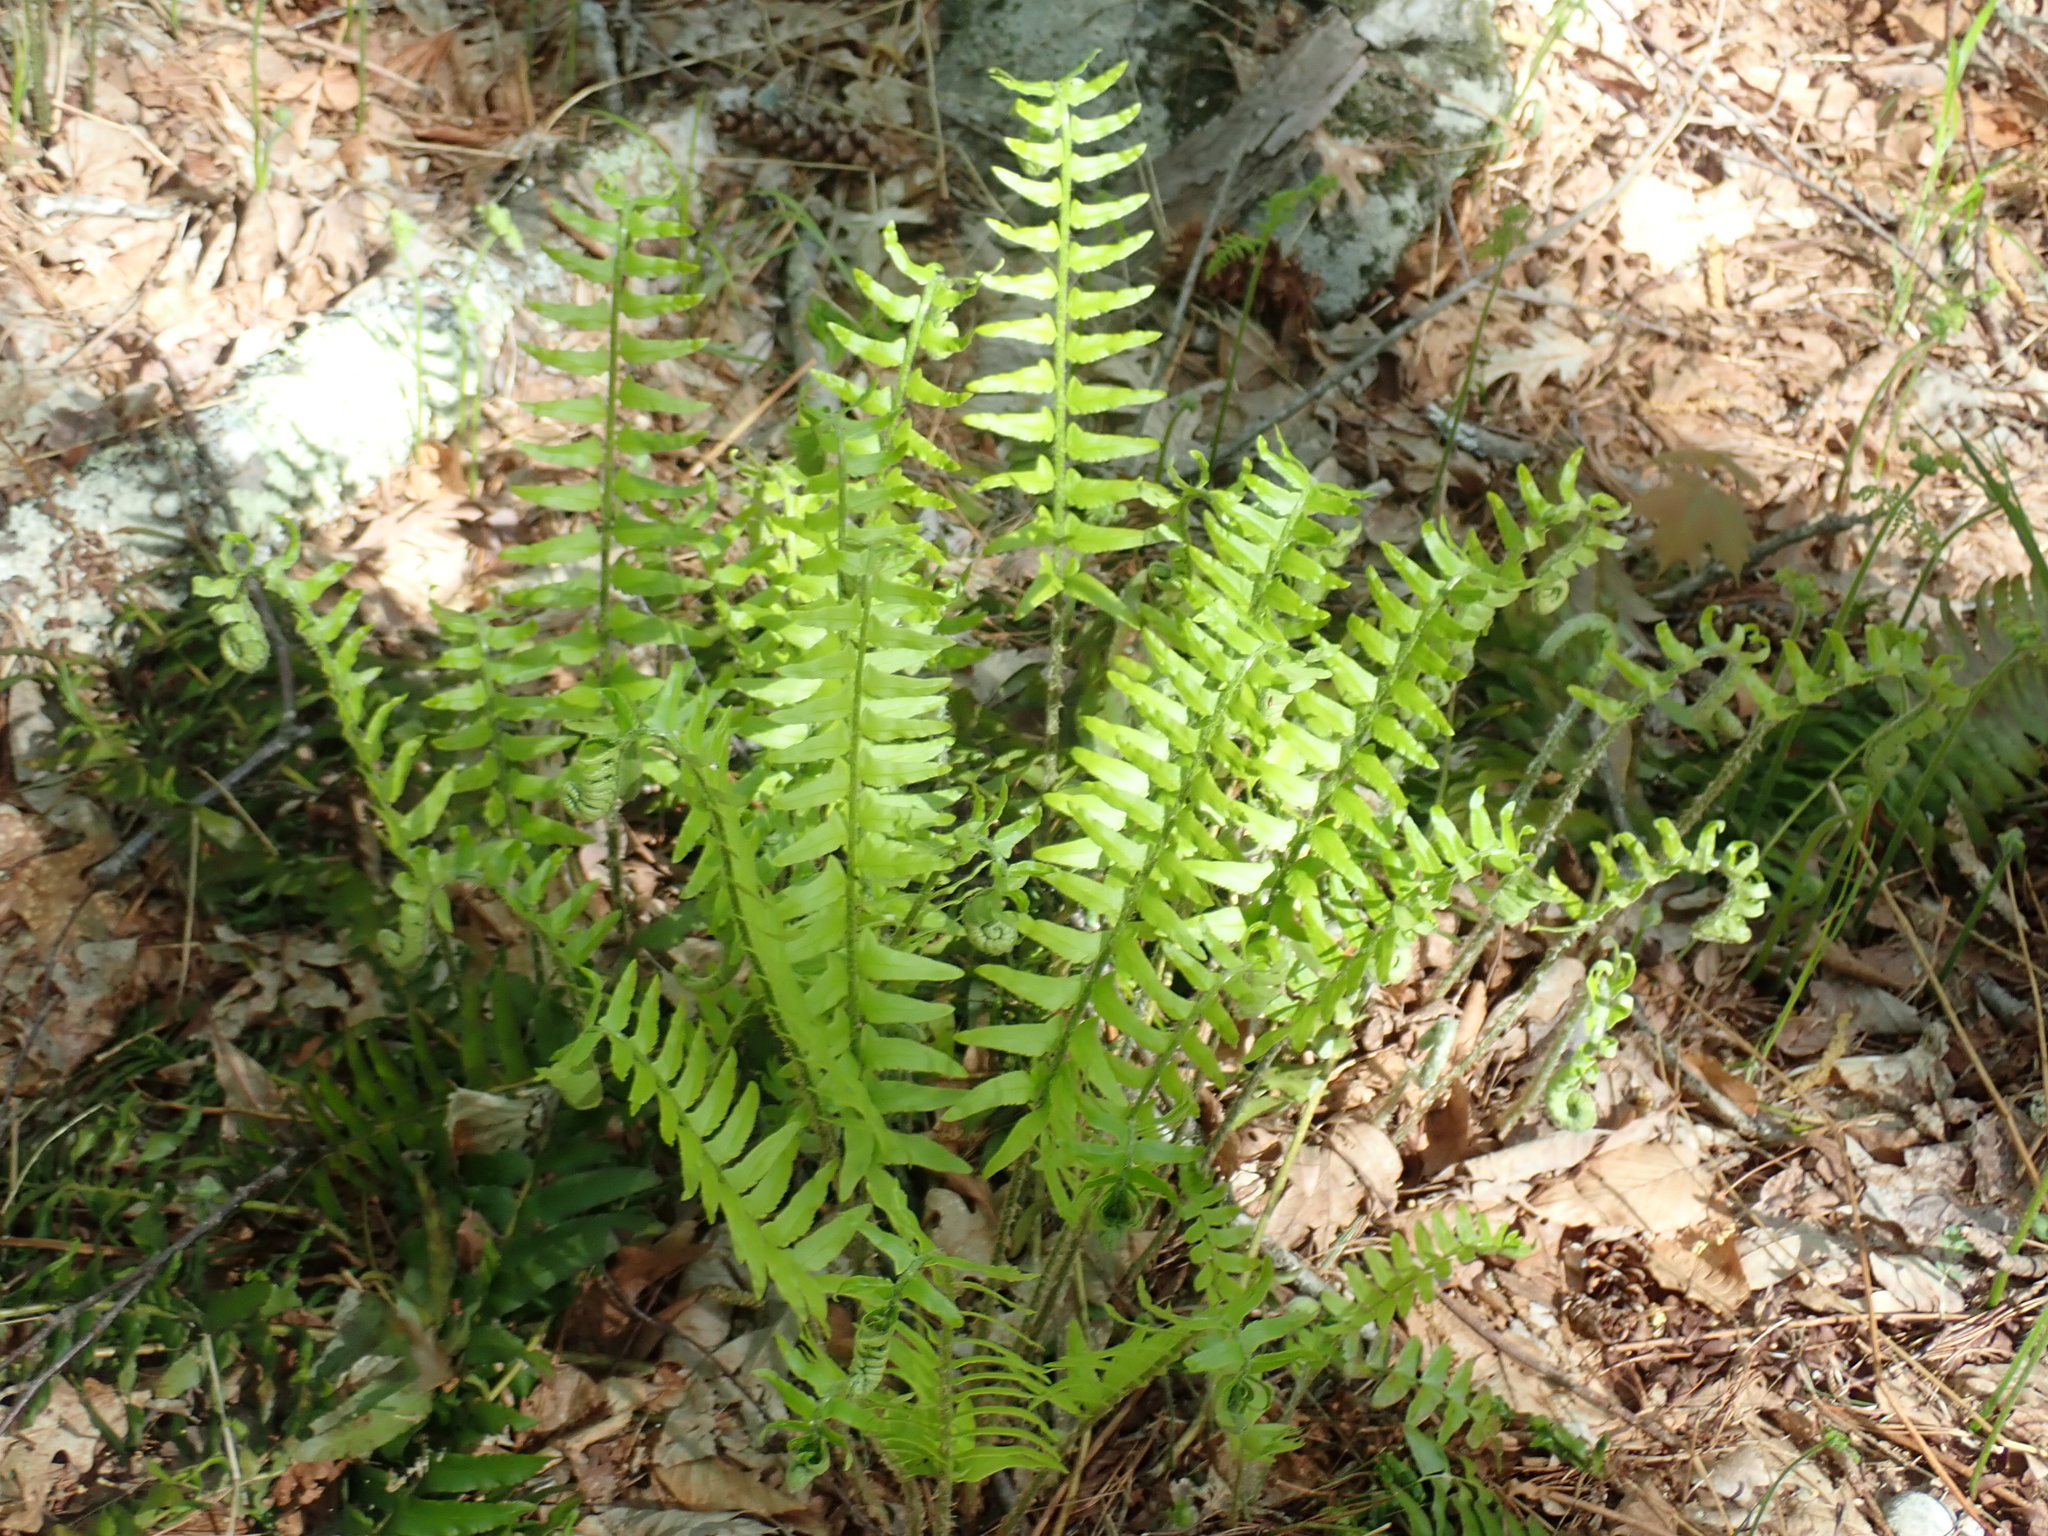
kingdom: Plantae
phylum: Tracheophyta
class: Polypodiopsida
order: Polypodiales
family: Dryopteridaceae
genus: Polystichum
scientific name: Polystichum acrostichoides
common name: Christmas fern
